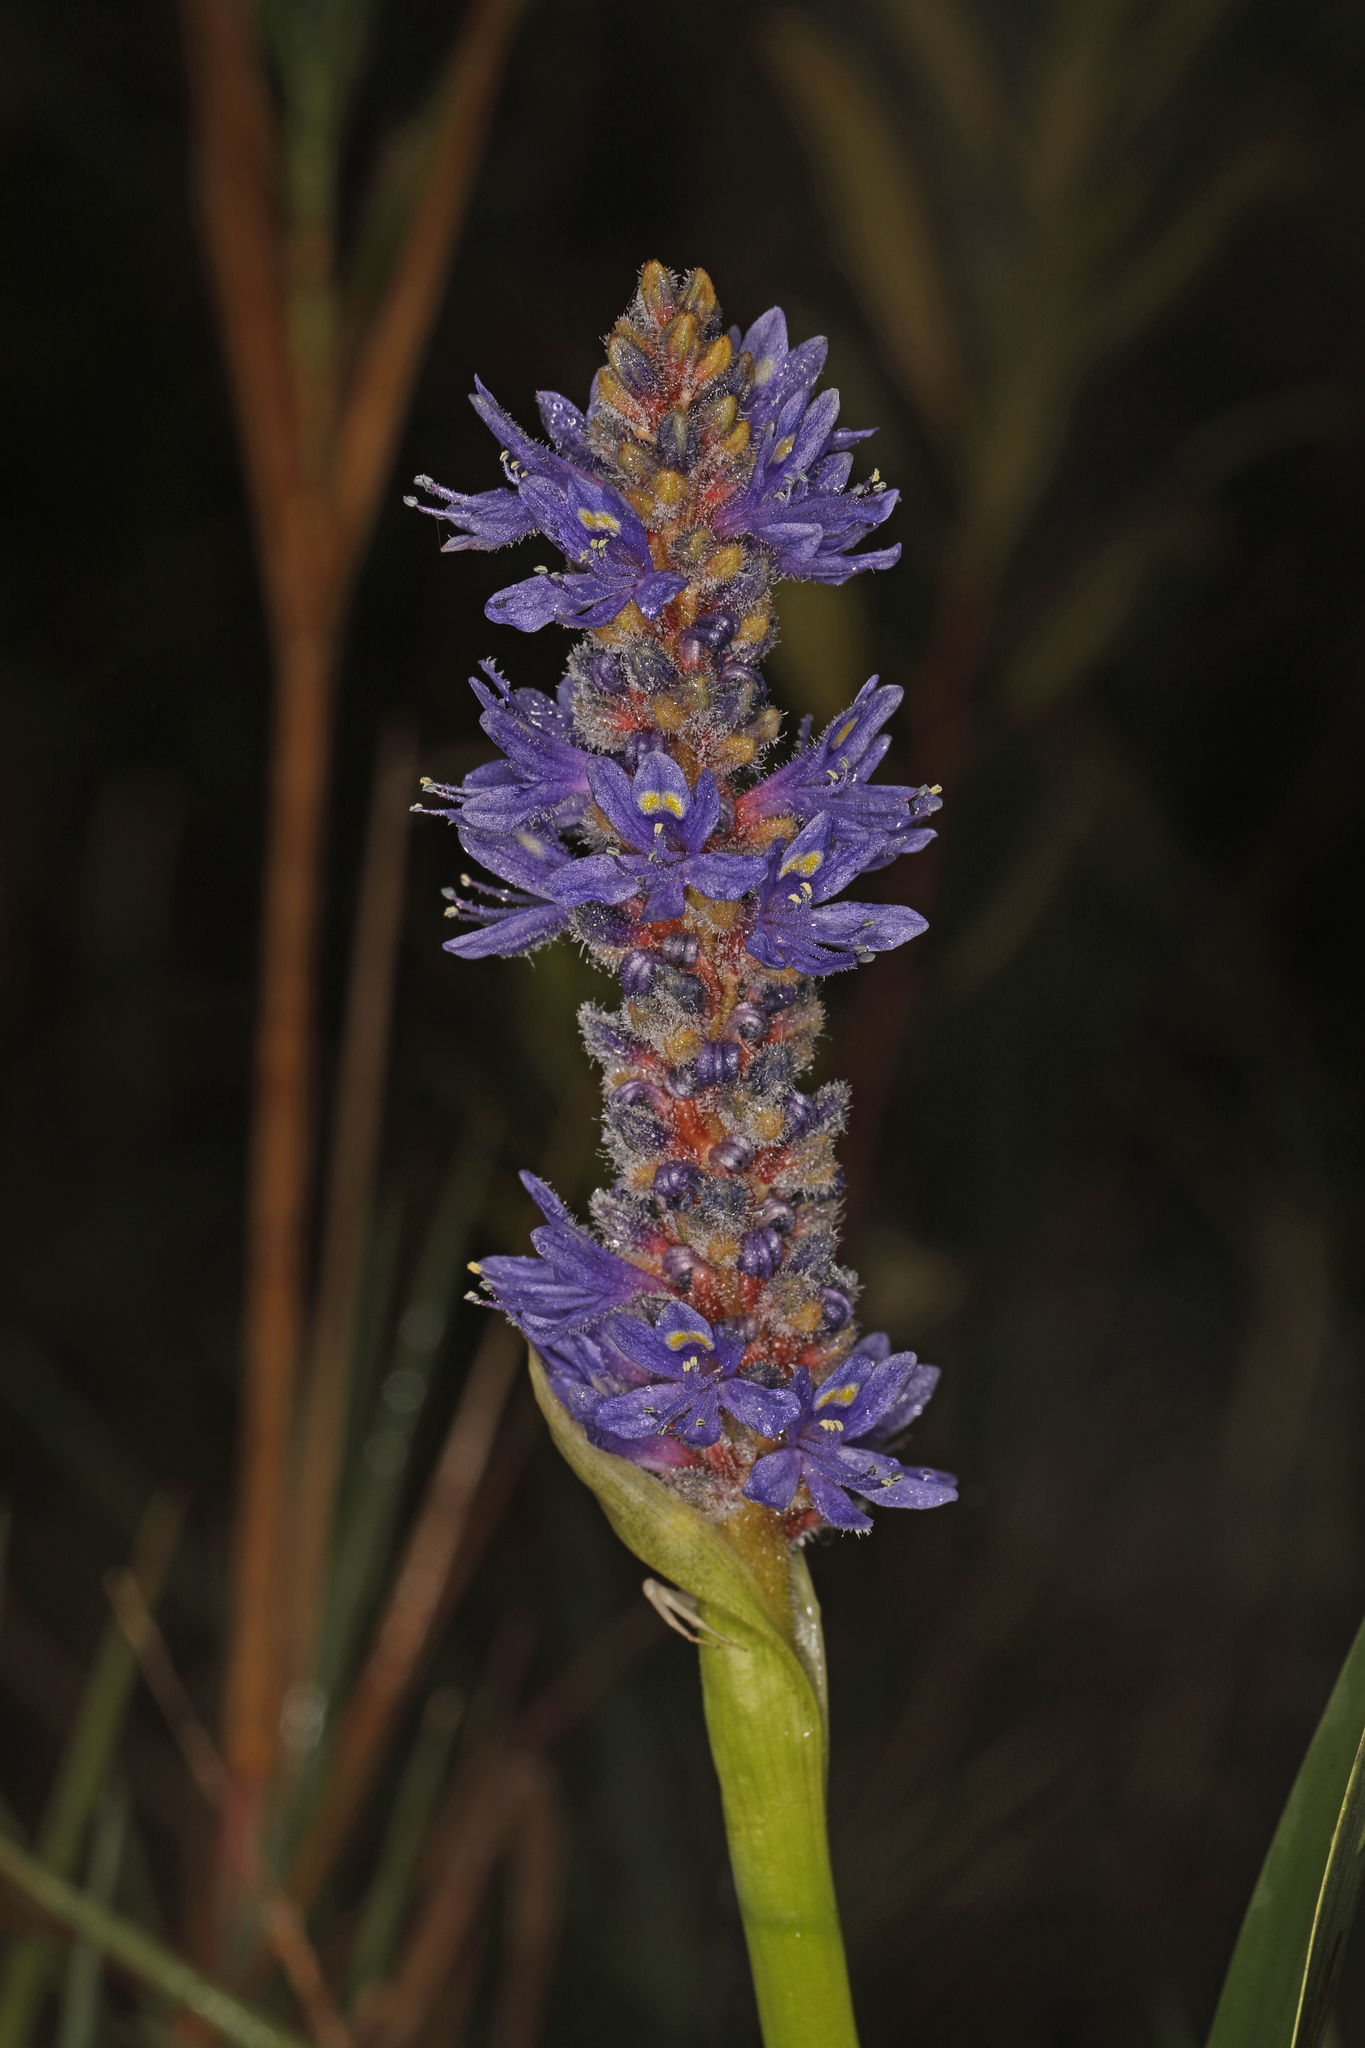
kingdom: Plantae
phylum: Tracheophyta
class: Liliopsida
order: Commelinales
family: Pontederiaceae
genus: Pontederia
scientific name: Pontederia cordata
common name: Pickerelweed
